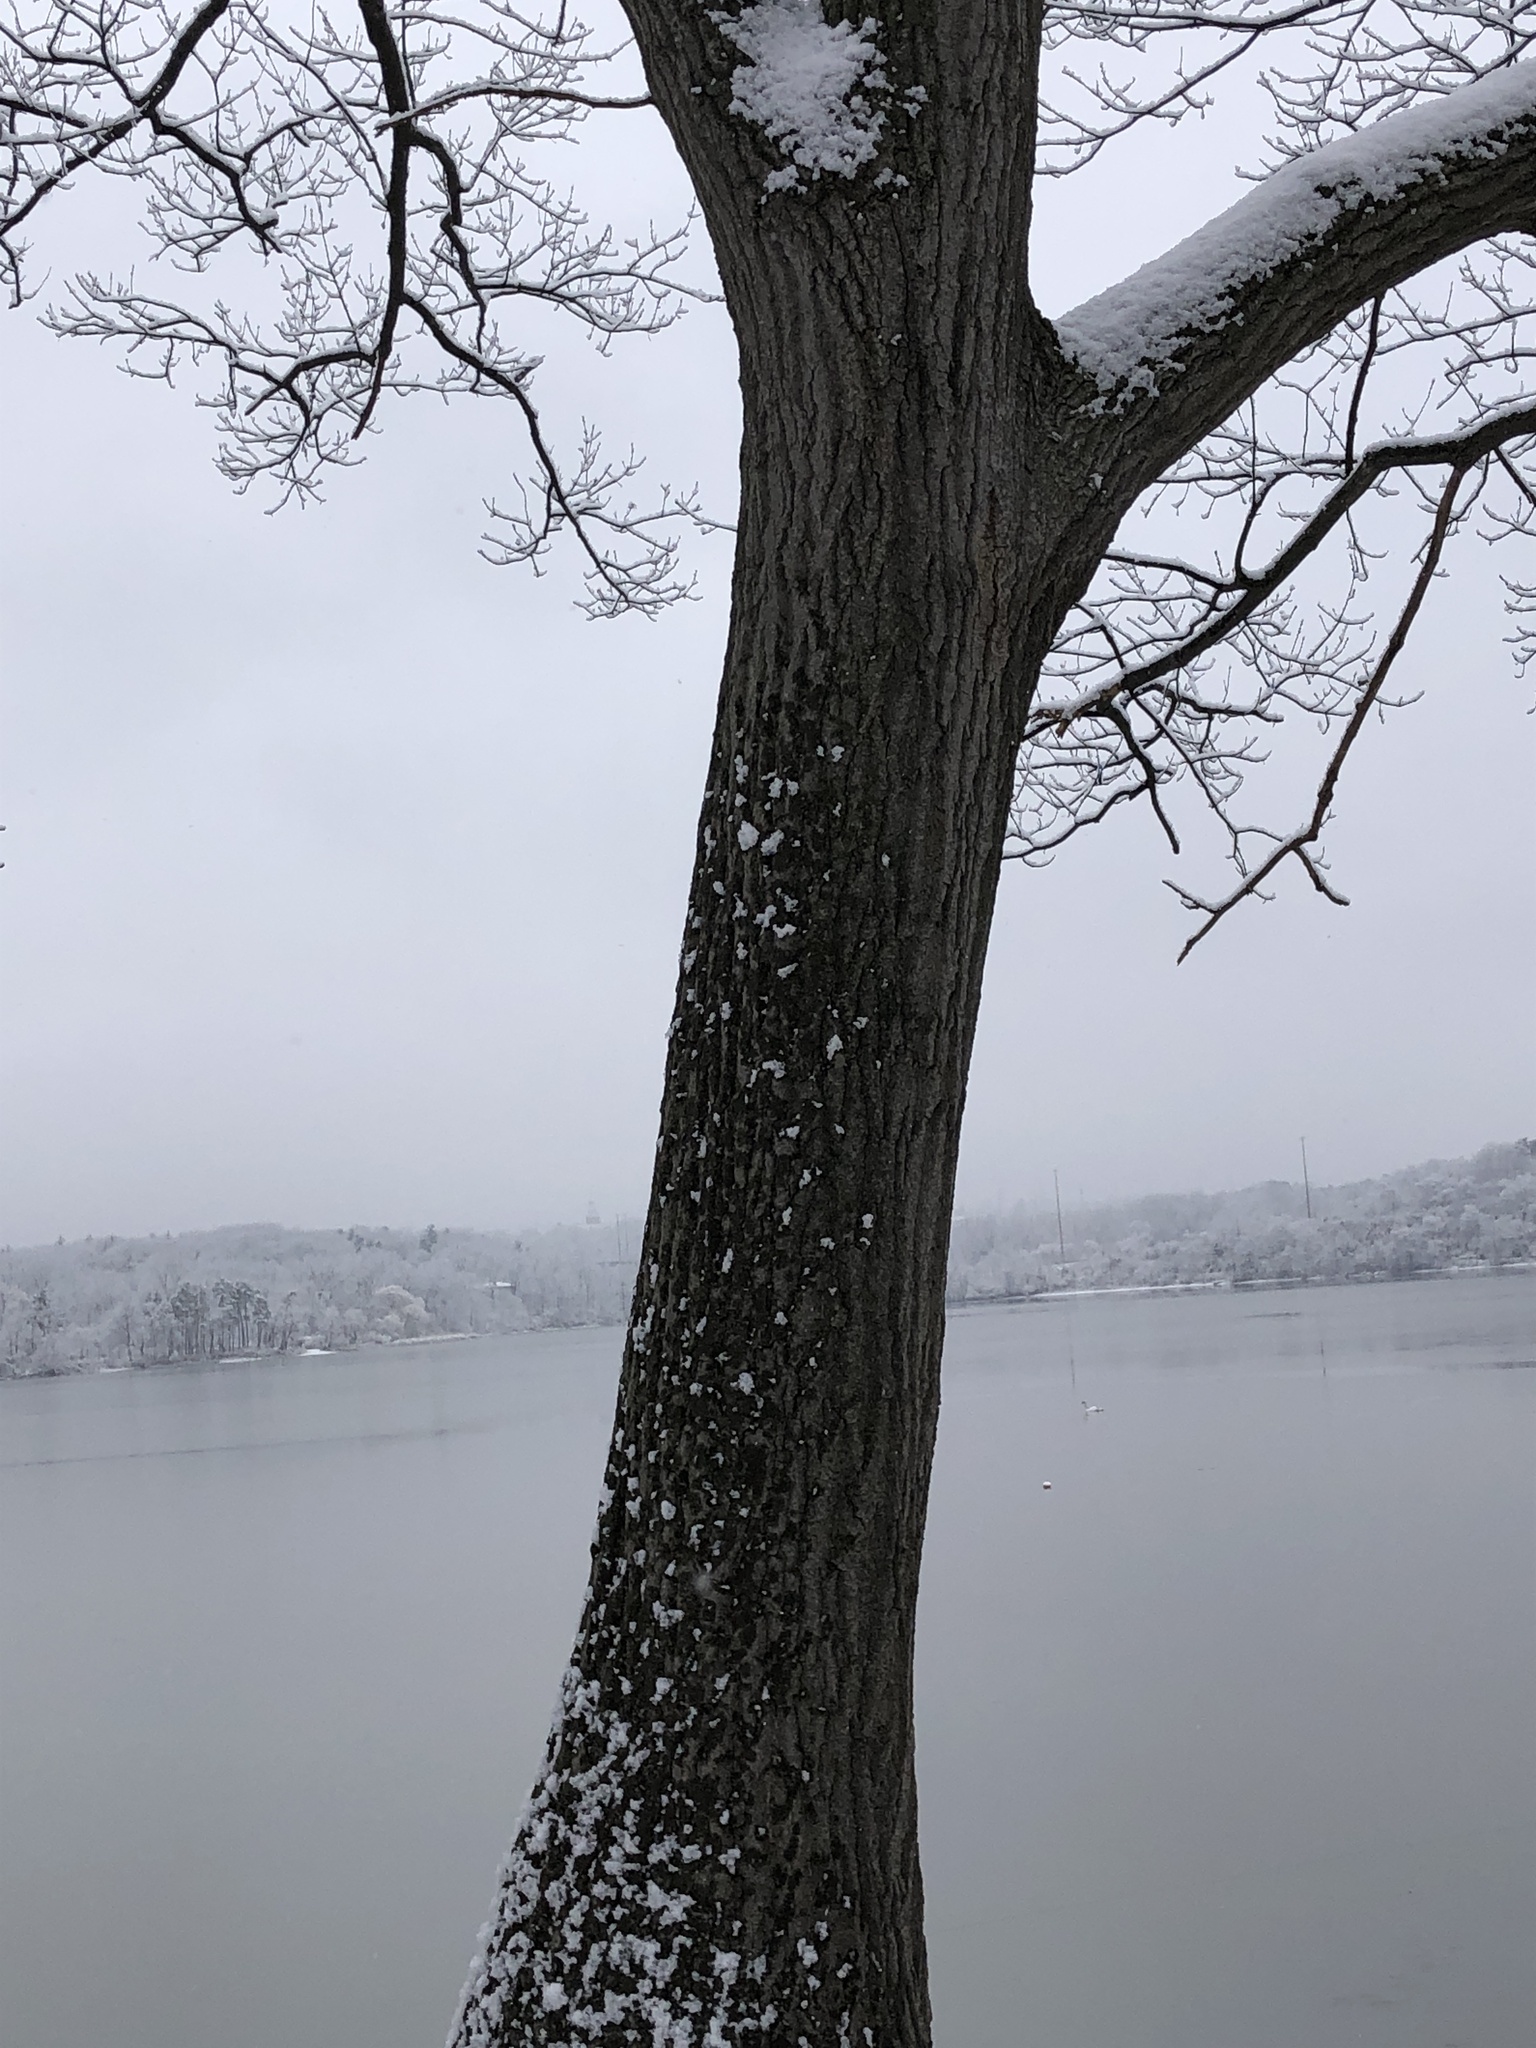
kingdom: Plantae
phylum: Tracheophyta
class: Magnoliopsida
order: Fagales
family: Fagaceae
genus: Quercus
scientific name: Quercus rubra
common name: Red oak
